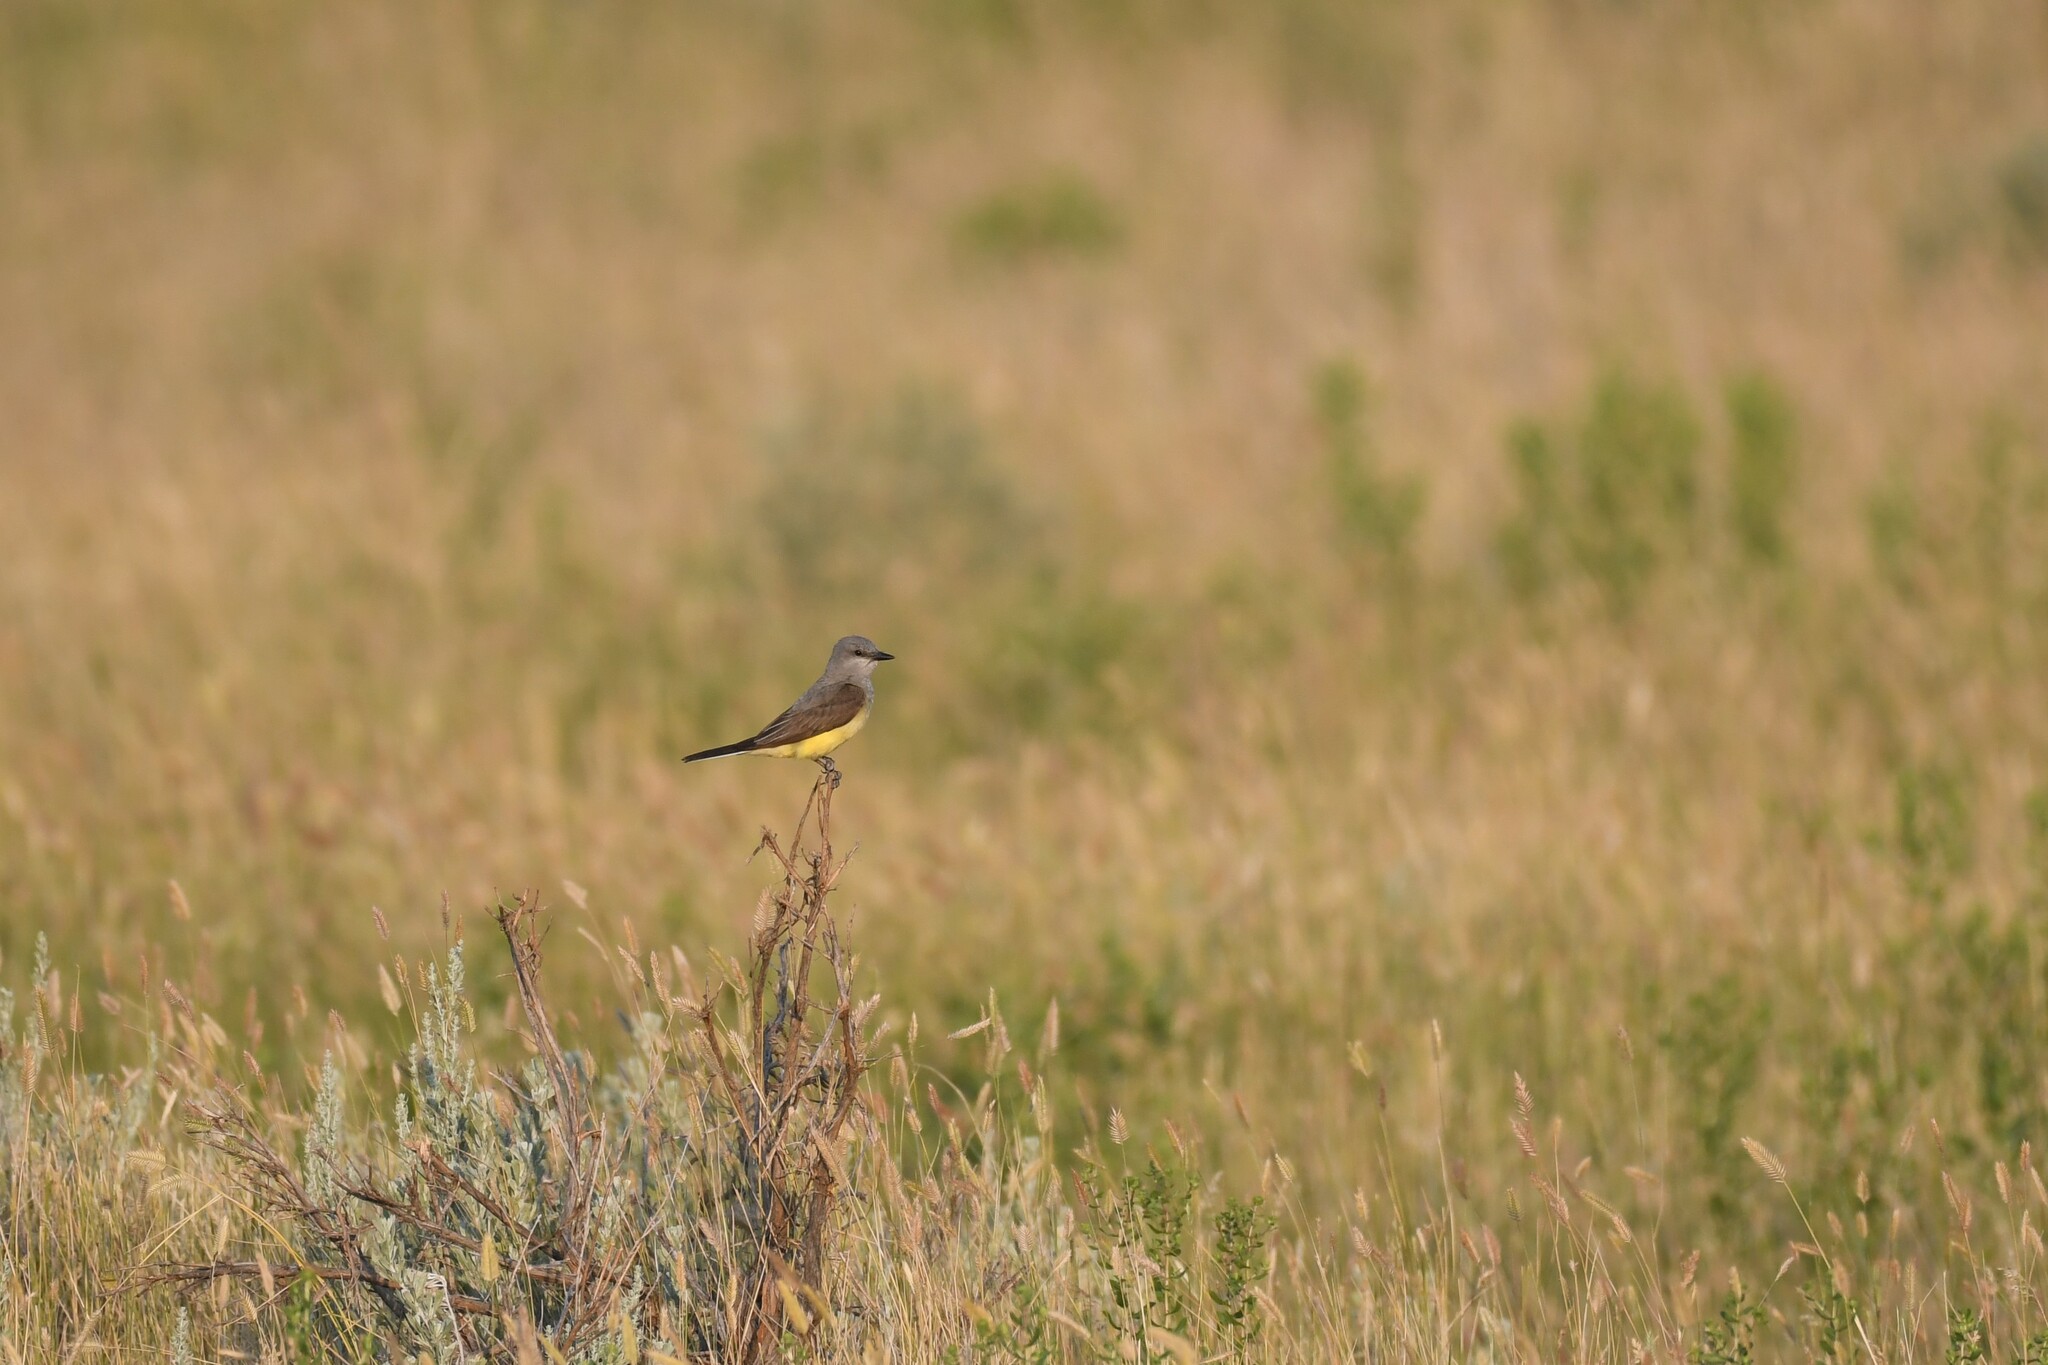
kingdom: Animalia
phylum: Chordata
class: Aves
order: Passeriformes
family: Tyrannidae
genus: Tyrannus
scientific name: Tyrannus verticalis
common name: Western kingbird
